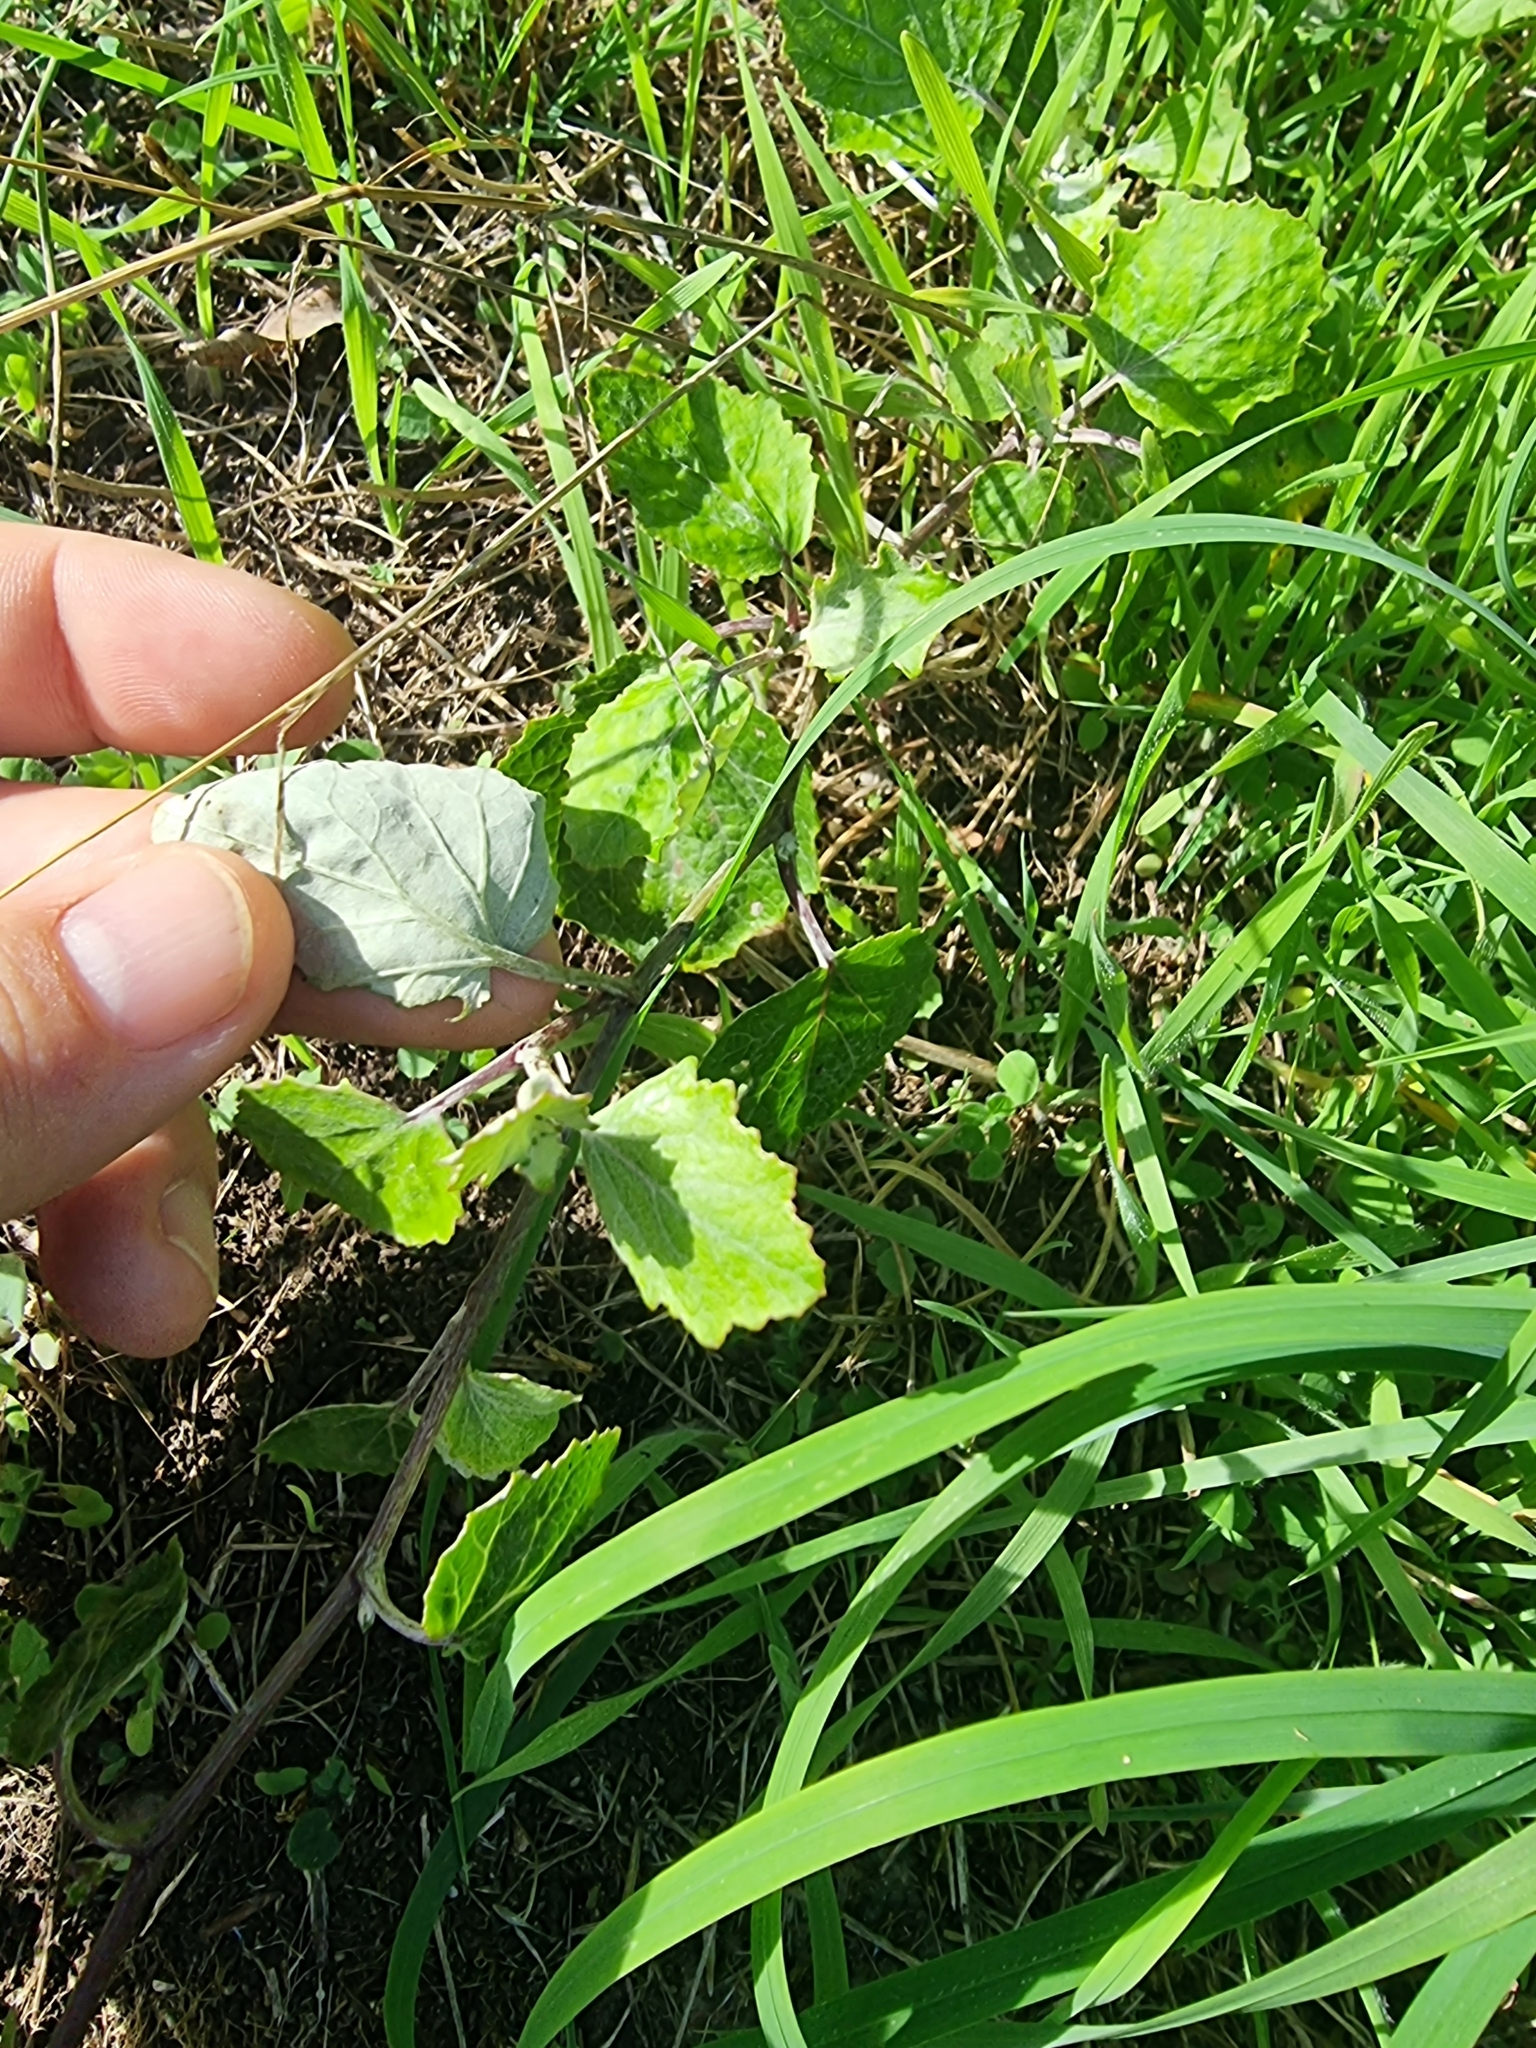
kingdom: Plantae
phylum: Tracheophyta
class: Magnoliopsida
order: Asterales
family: Asteraceae
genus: Pericallis
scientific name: Pericallis aurita
